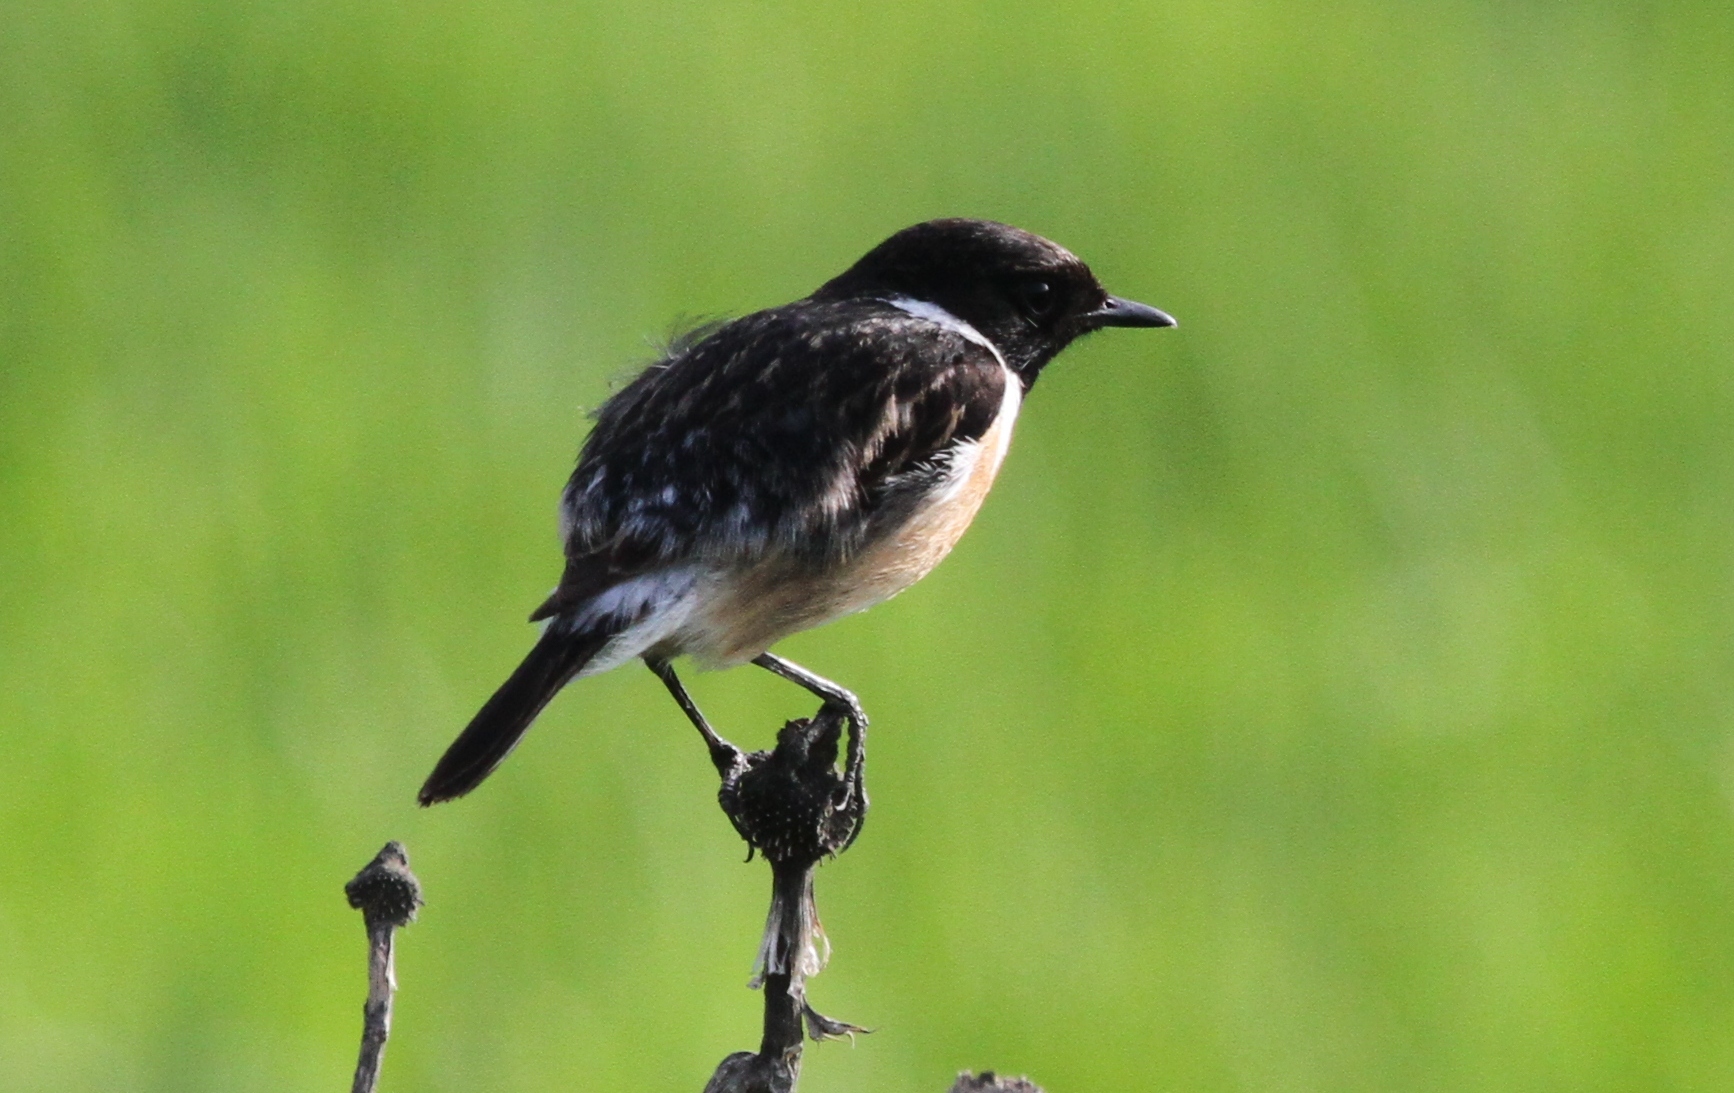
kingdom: Animalia
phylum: Chordata
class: Aves
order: Passeriformes
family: Muscicapidae
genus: Saxicola
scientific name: Saxicola rubicola
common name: European stonechat
